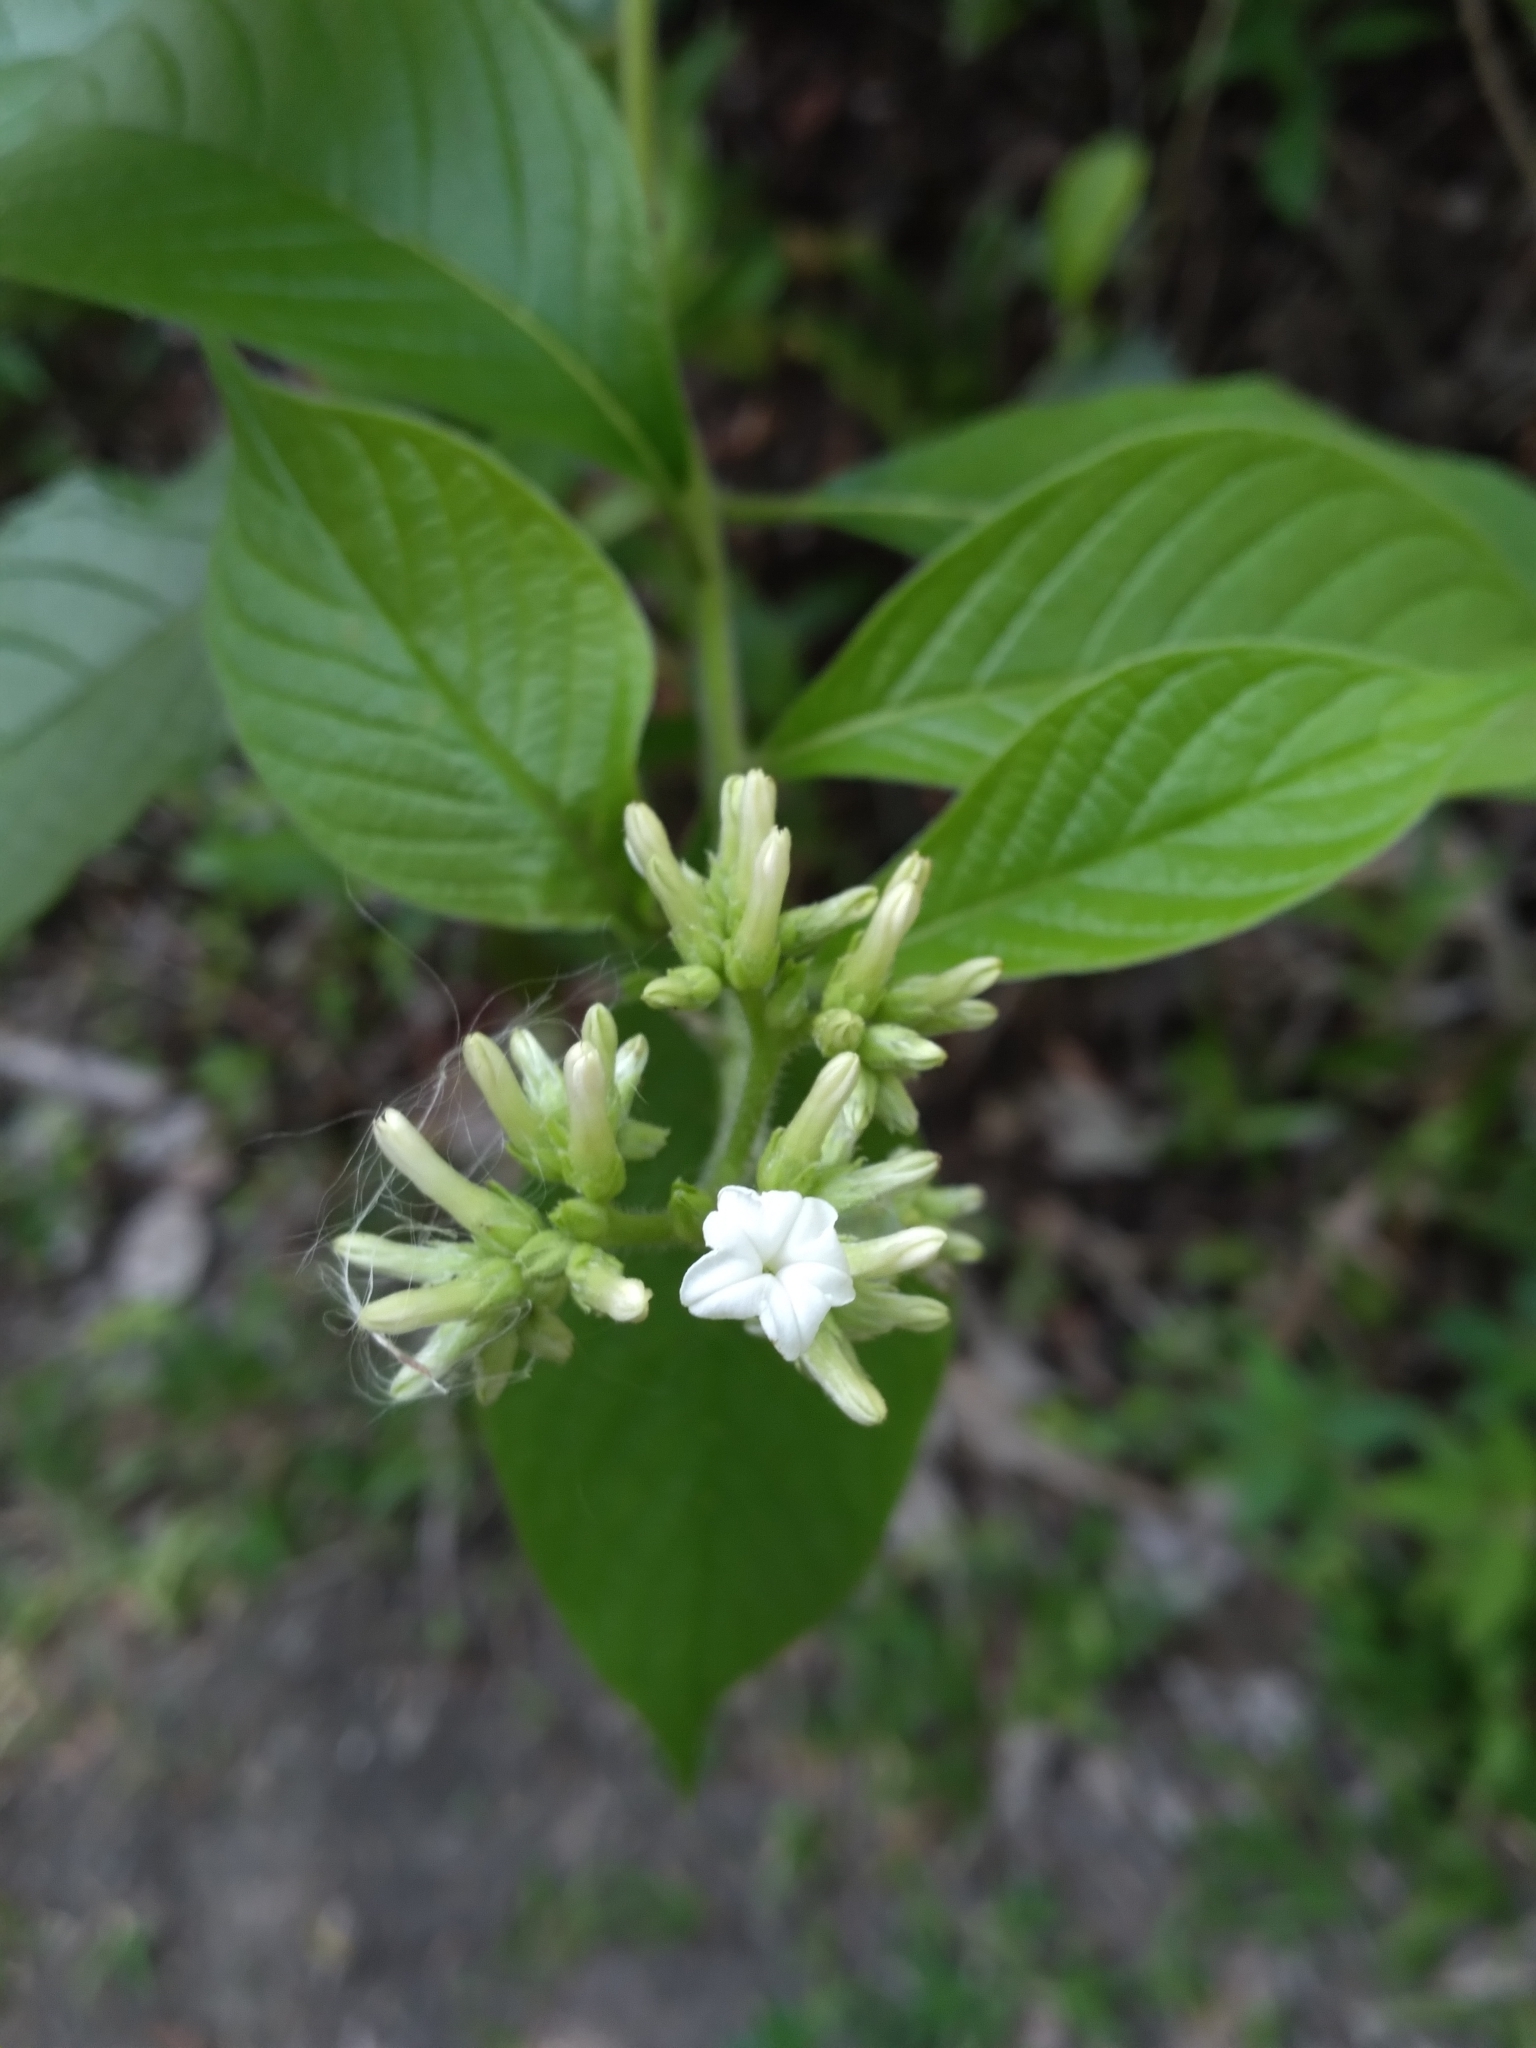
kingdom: Plantae
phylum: Tracheophyta
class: Magnoliopsida
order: Boraginales
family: Heliotropiaceae
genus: Heliotropium
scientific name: Heliotropium verdcourtii
